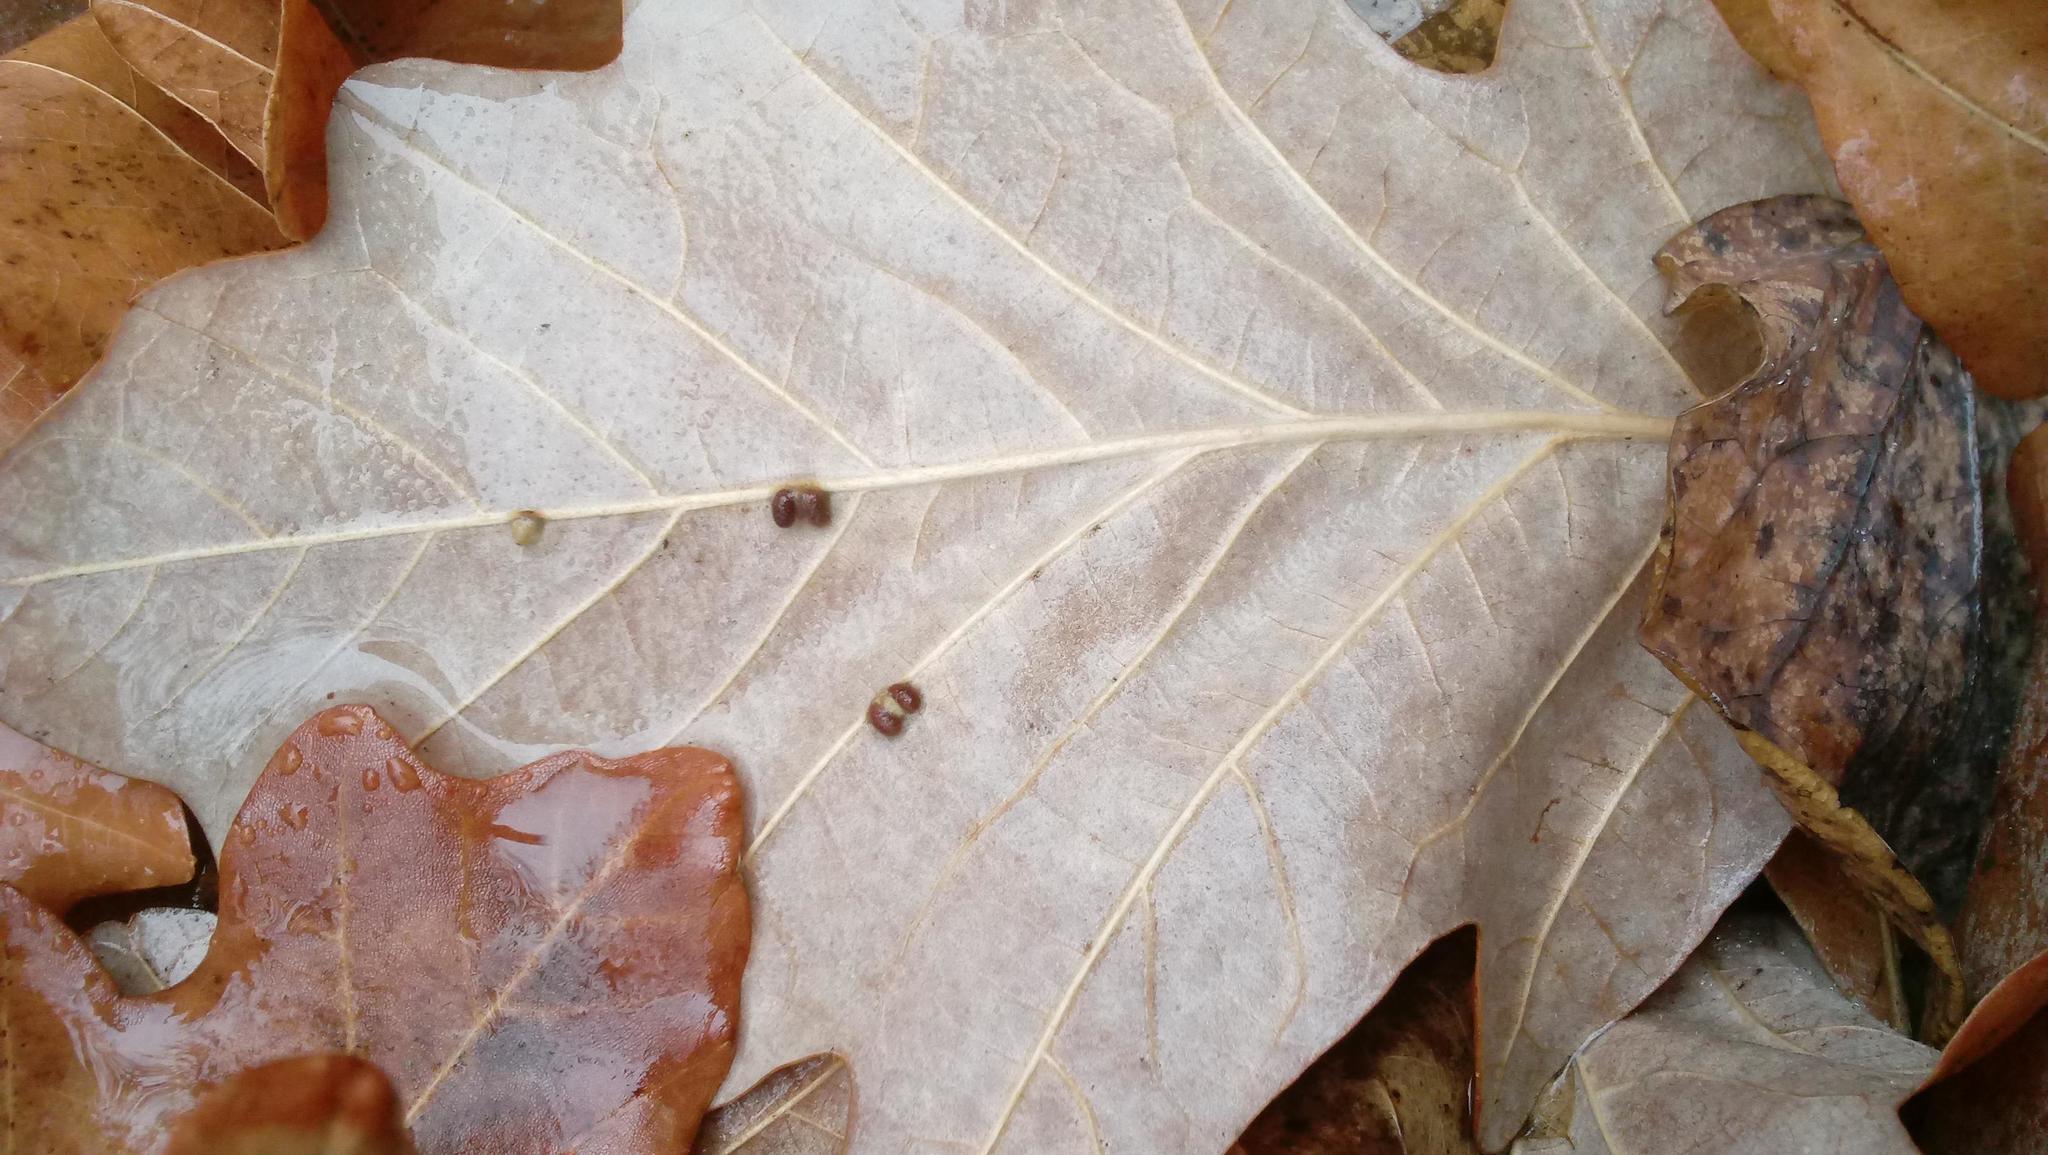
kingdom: Animalia
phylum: Arthropoda
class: Insecta
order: Hymenoptera
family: Cynipidae
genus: Andricus
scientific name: Andricus Druon ignotum
